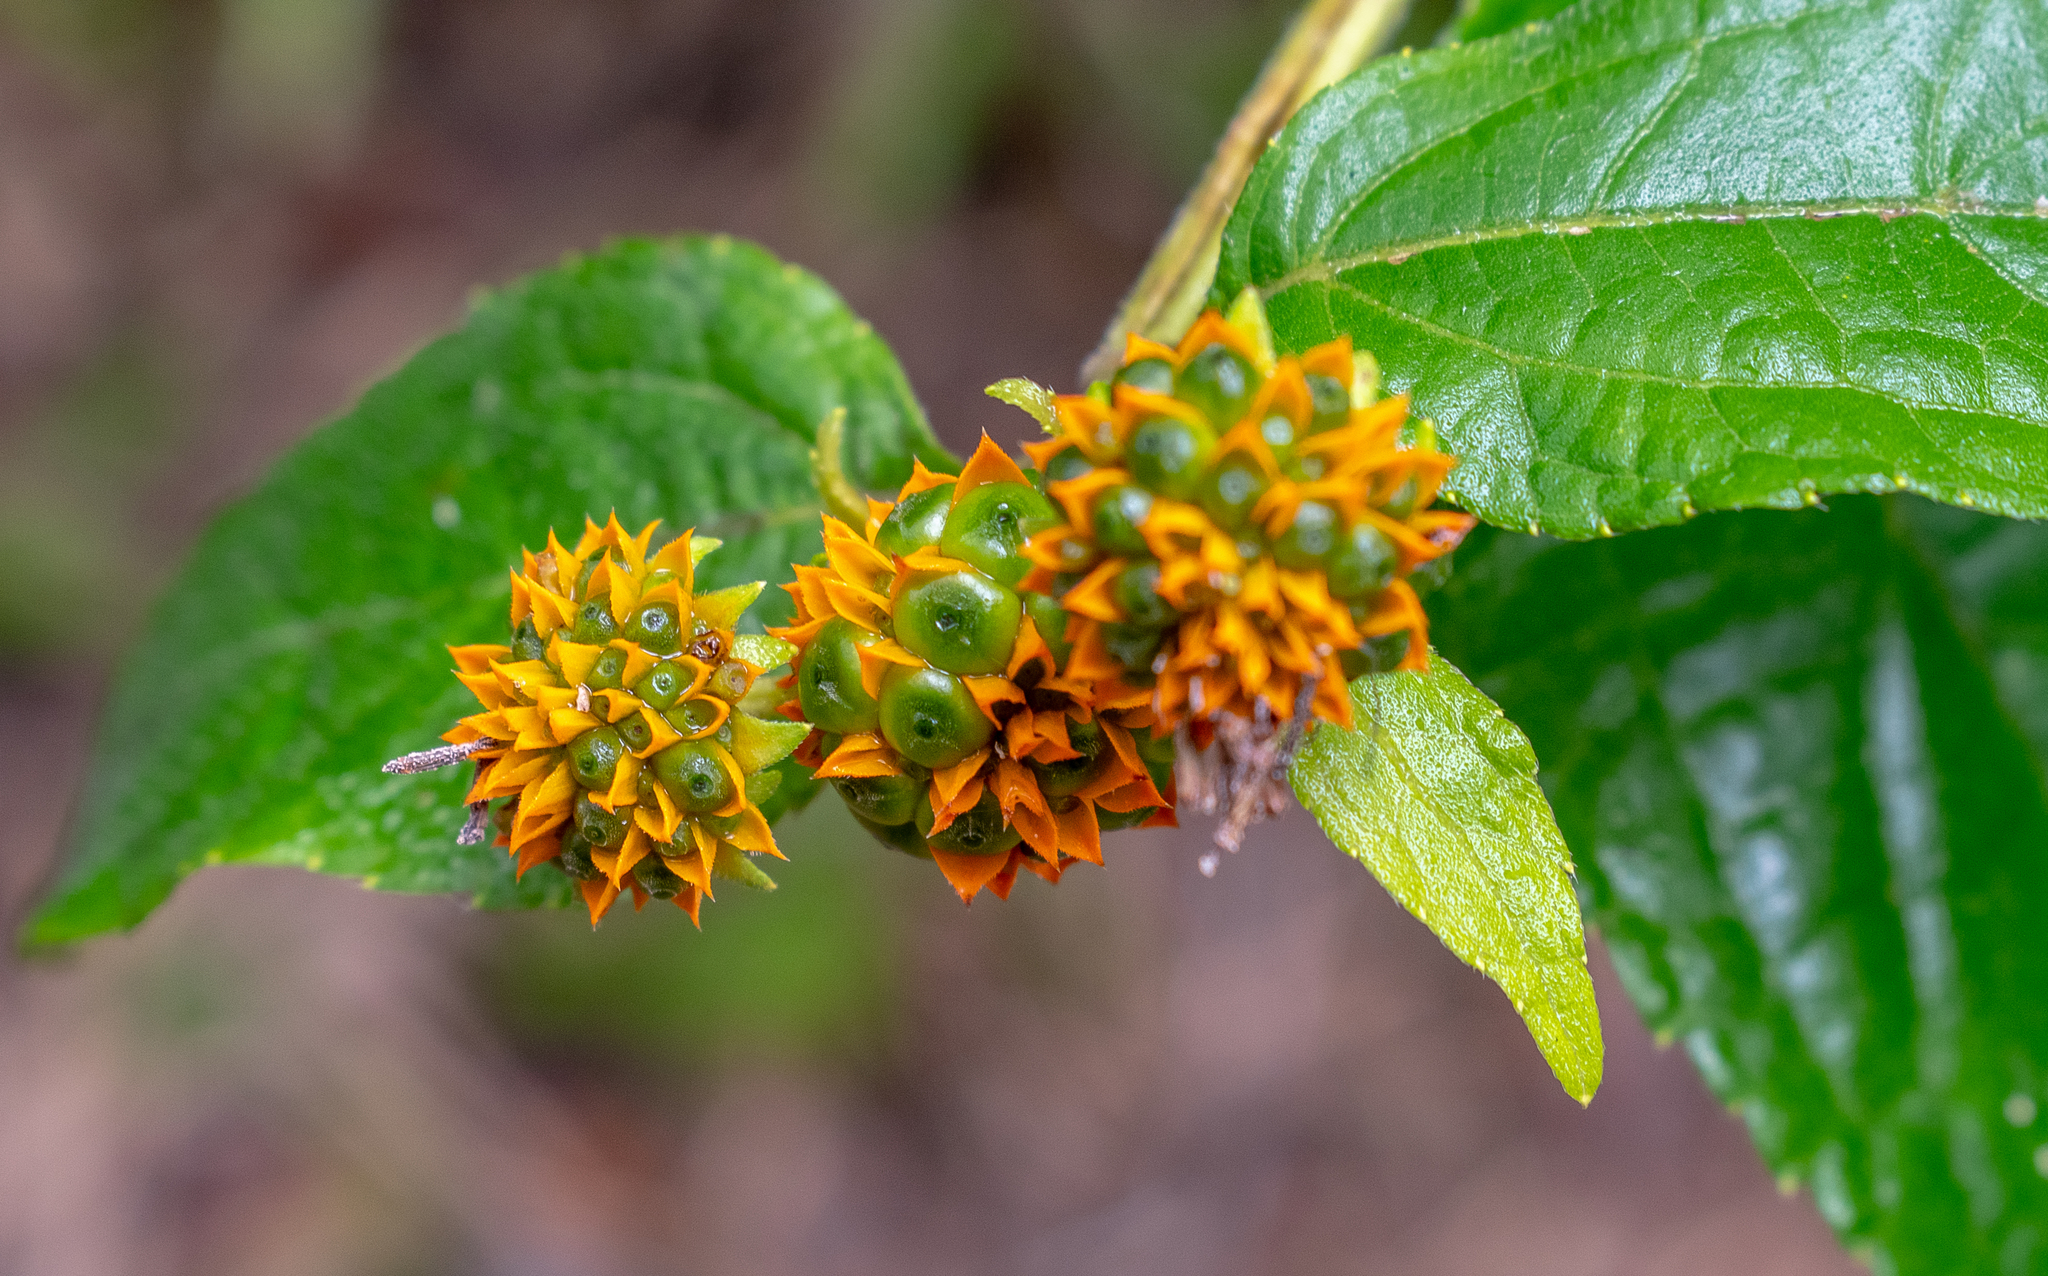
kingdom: Plantae
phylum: Tracheophyta
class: Magnoliopsida
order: Asterales
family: Asteraceae
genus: Tilesia
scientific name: Tilesia baccata
